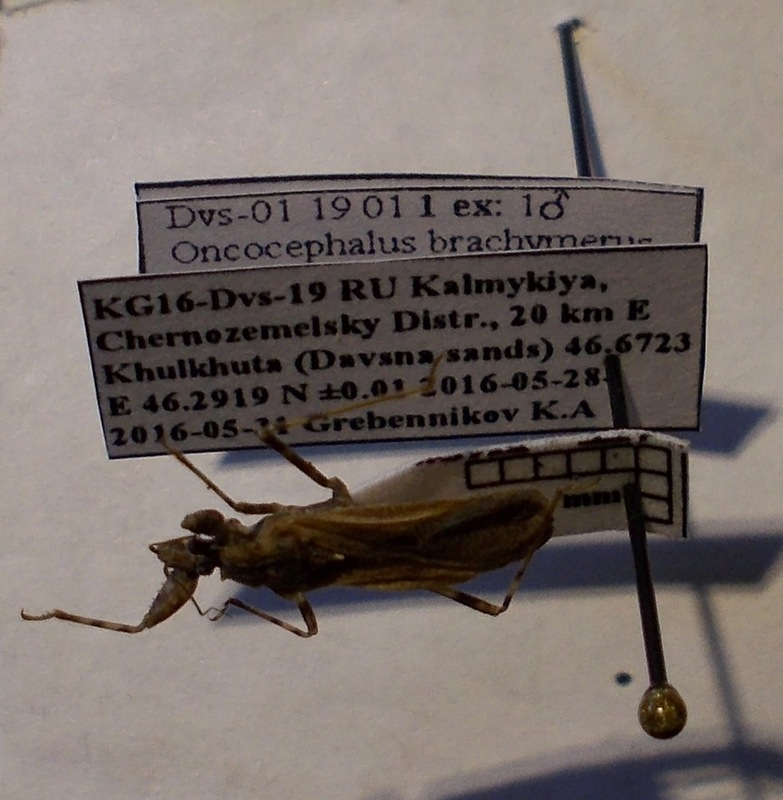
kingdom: Animalia
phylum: Arthropoda
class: Insecta
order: Hemiptera
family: Reduviidae
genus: Oncocephalus
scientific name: Oncocephalus brachymerus
